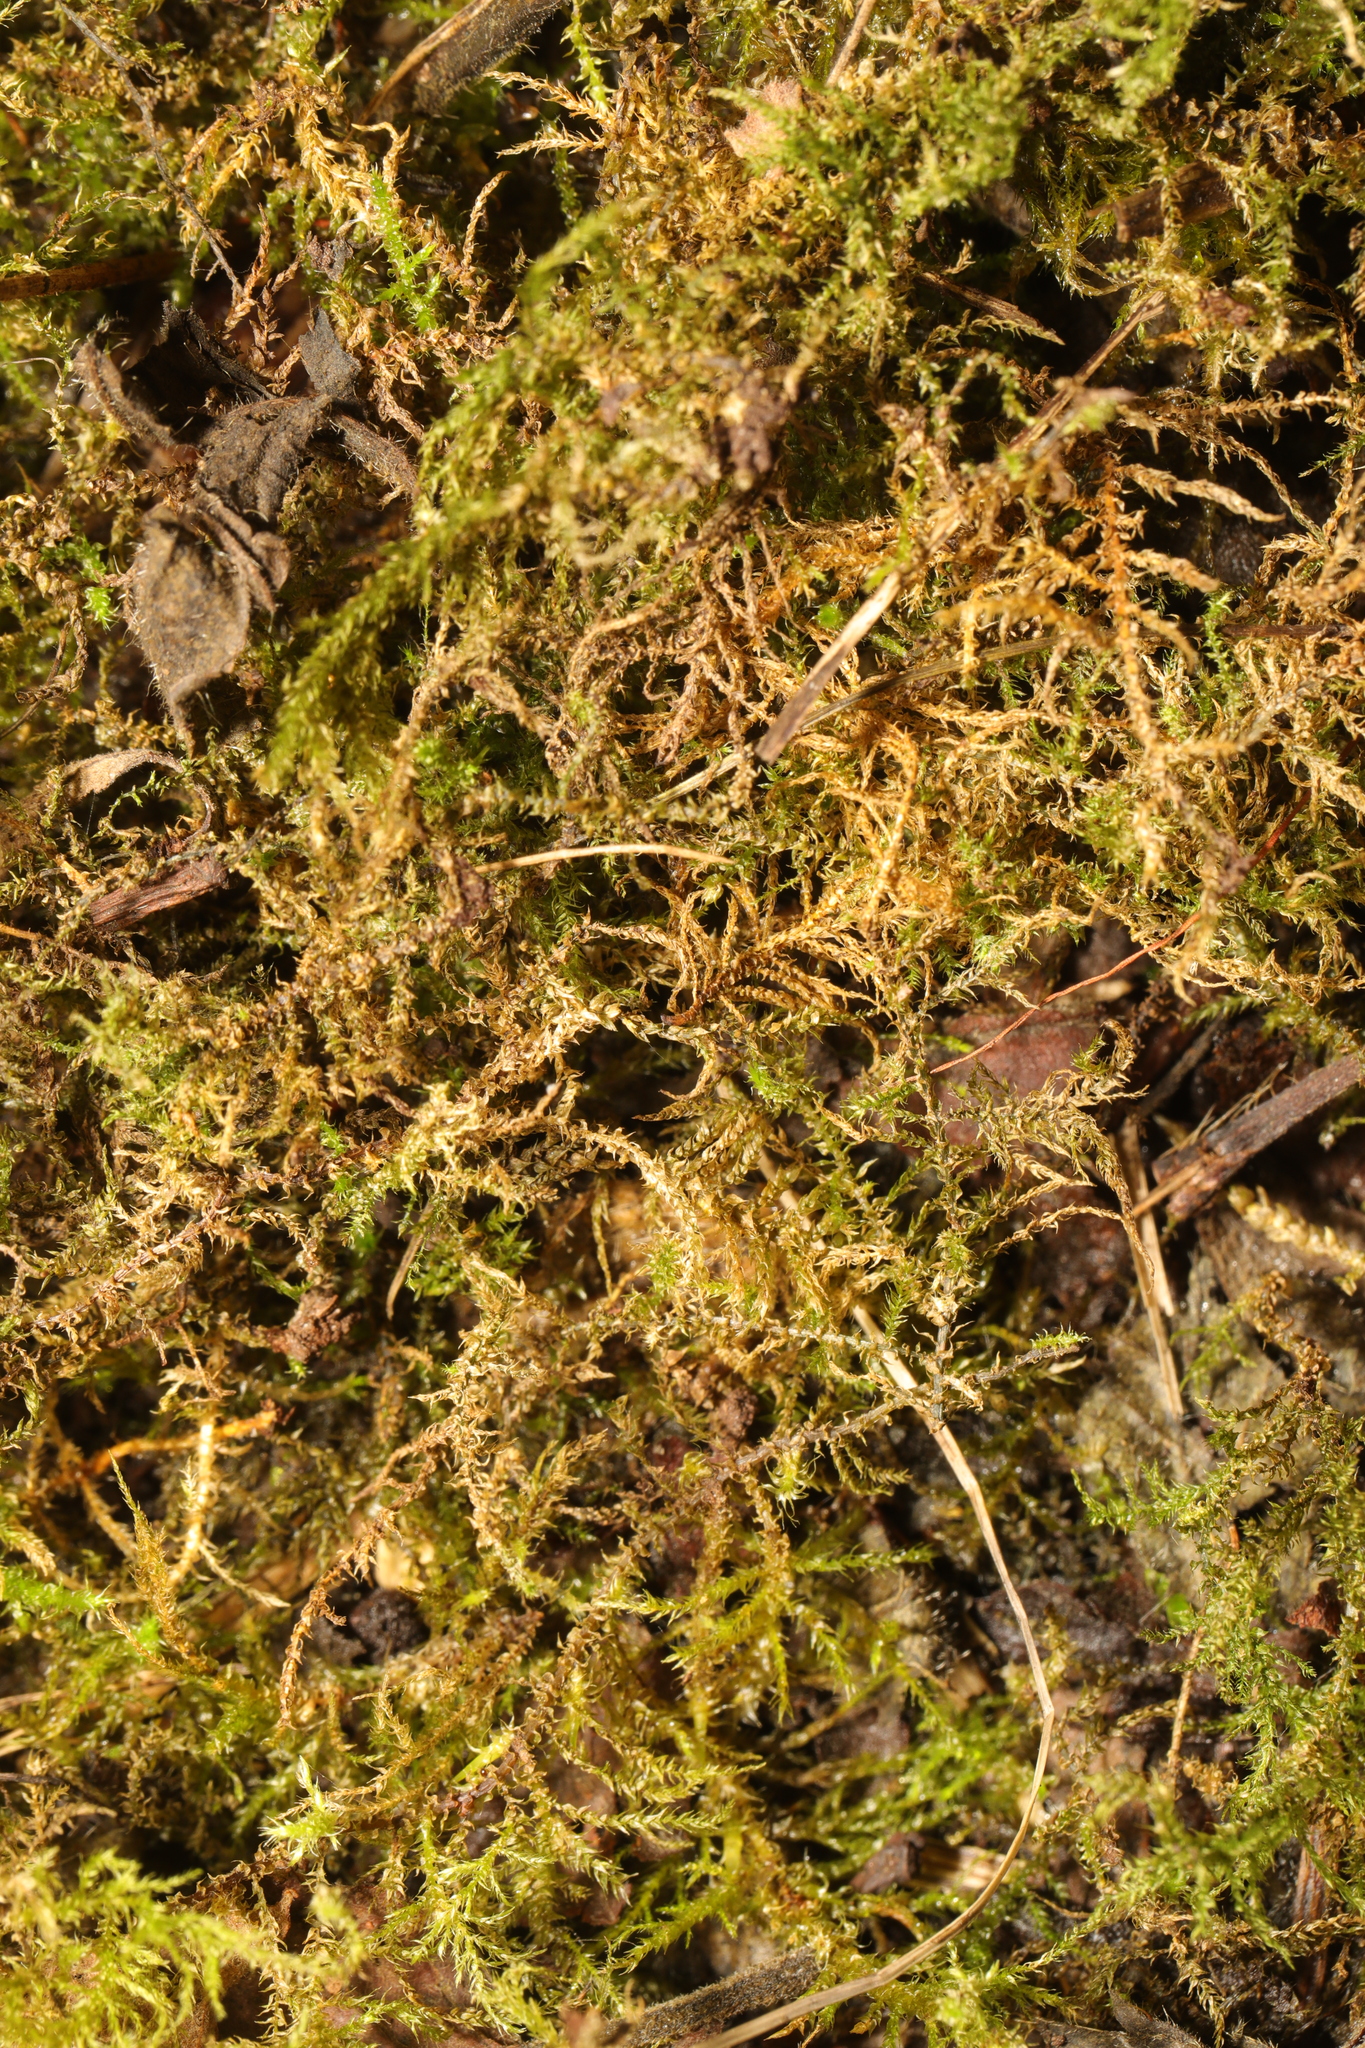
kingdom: Plantae
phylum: Bryophyta
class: Bryopsida
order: Hypnales
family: Brachytheciaceae
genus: Kindbergia
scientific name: Kindbergia praelonga
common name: Slender beaked moss
